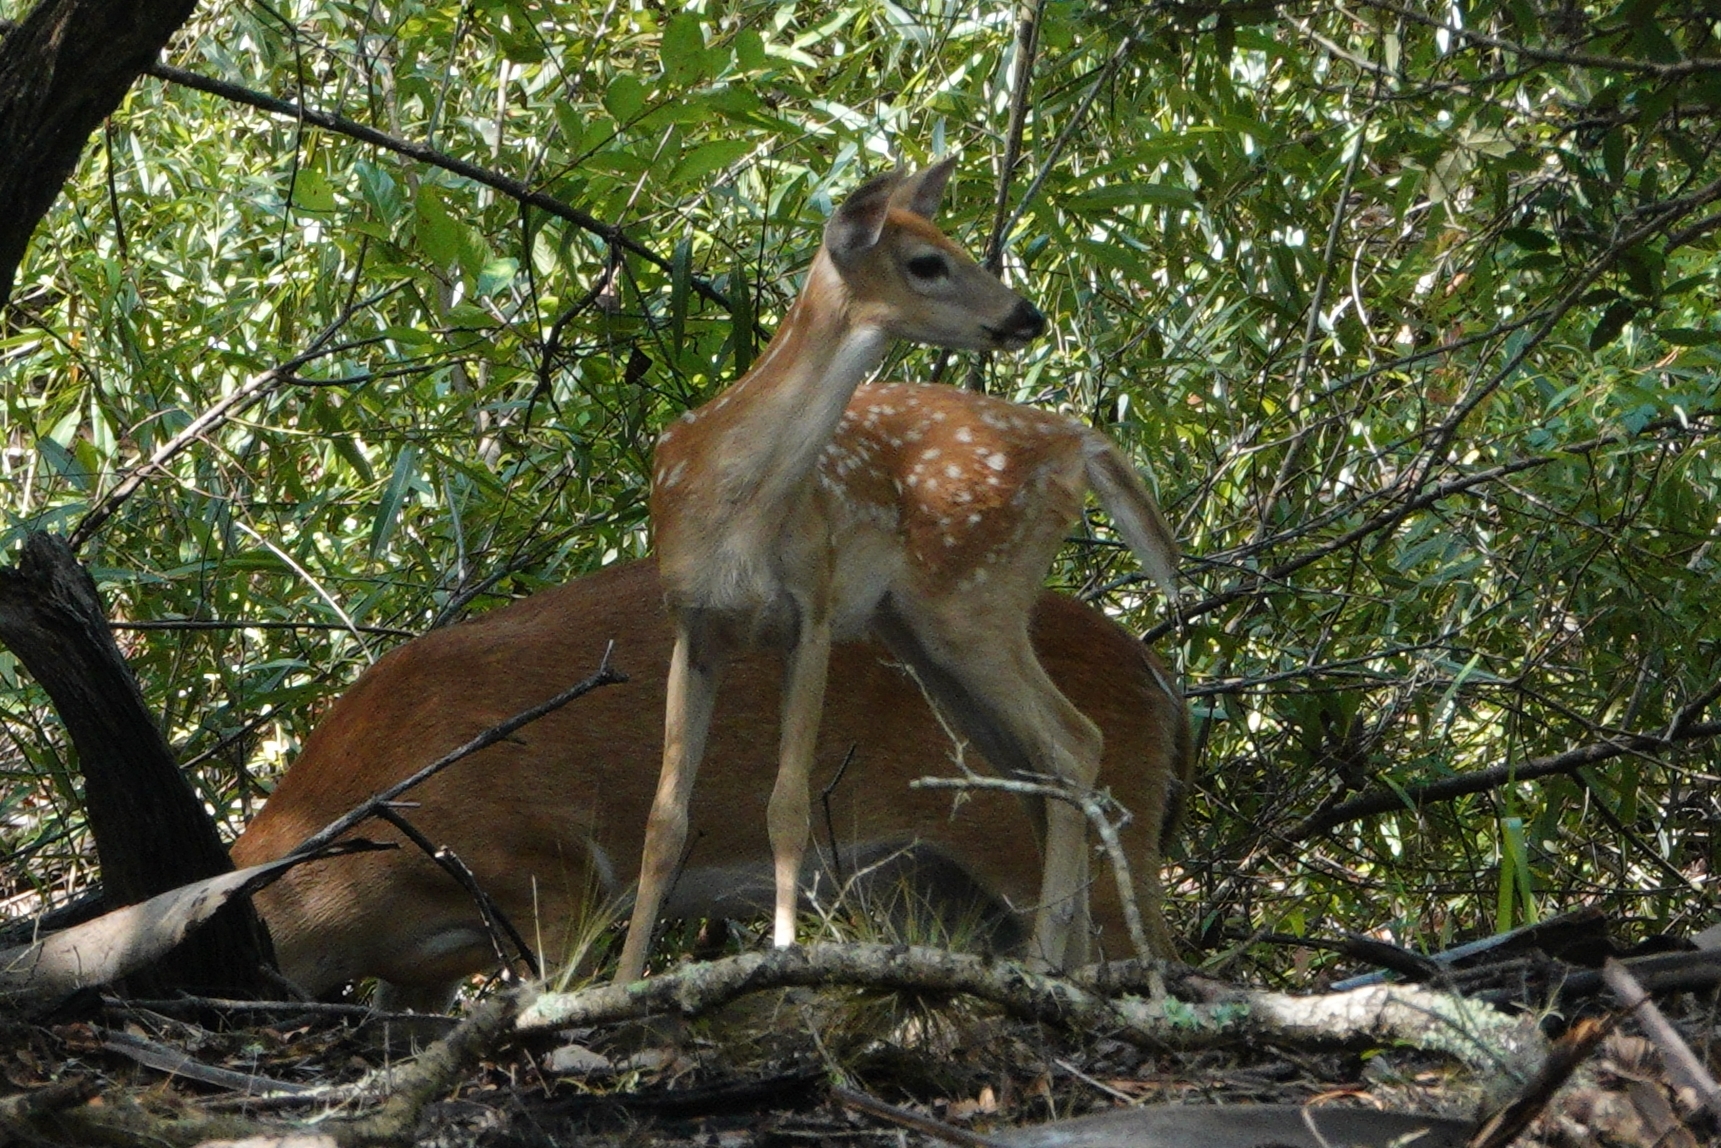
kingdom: Animalia
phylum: Chordata
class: Mammalia
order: Artiodactyla
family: Cervidae
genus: Odocoileus
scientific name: Odocoileus virginianus
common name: White-tailed deer
